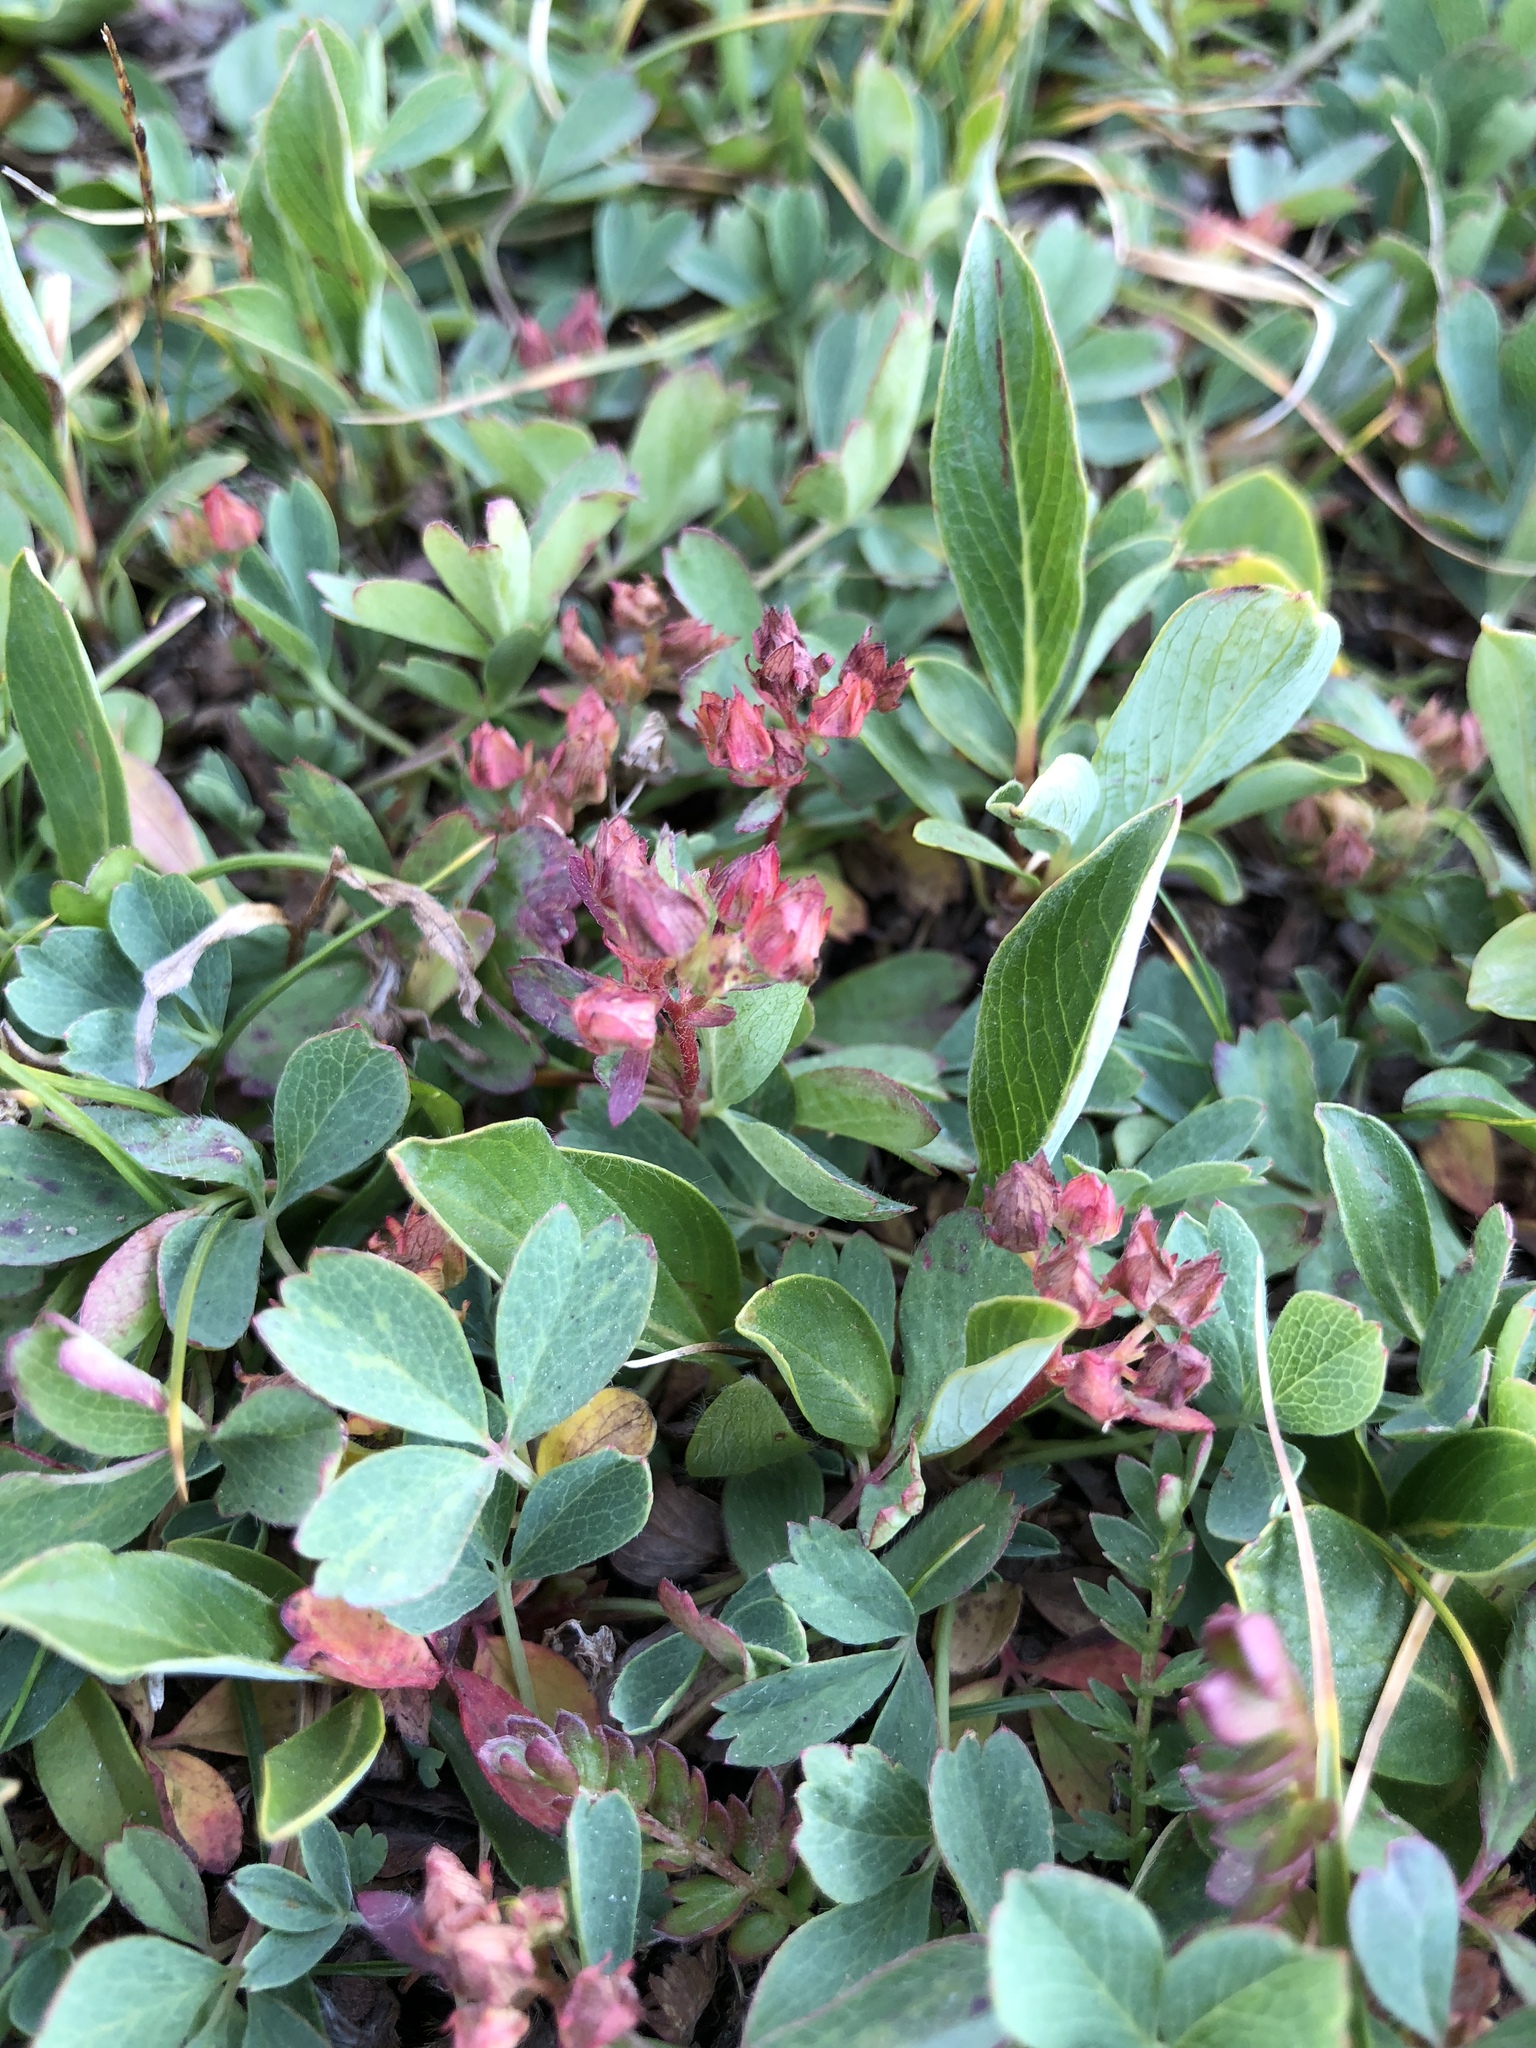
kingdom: Plantae
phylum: Tracheophyta
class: Magnoliopsida
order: Rosales
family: Rosaceae
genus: Sibbaldia
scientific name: Sibbaldia procumbens
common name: Creeping sibbaldia
